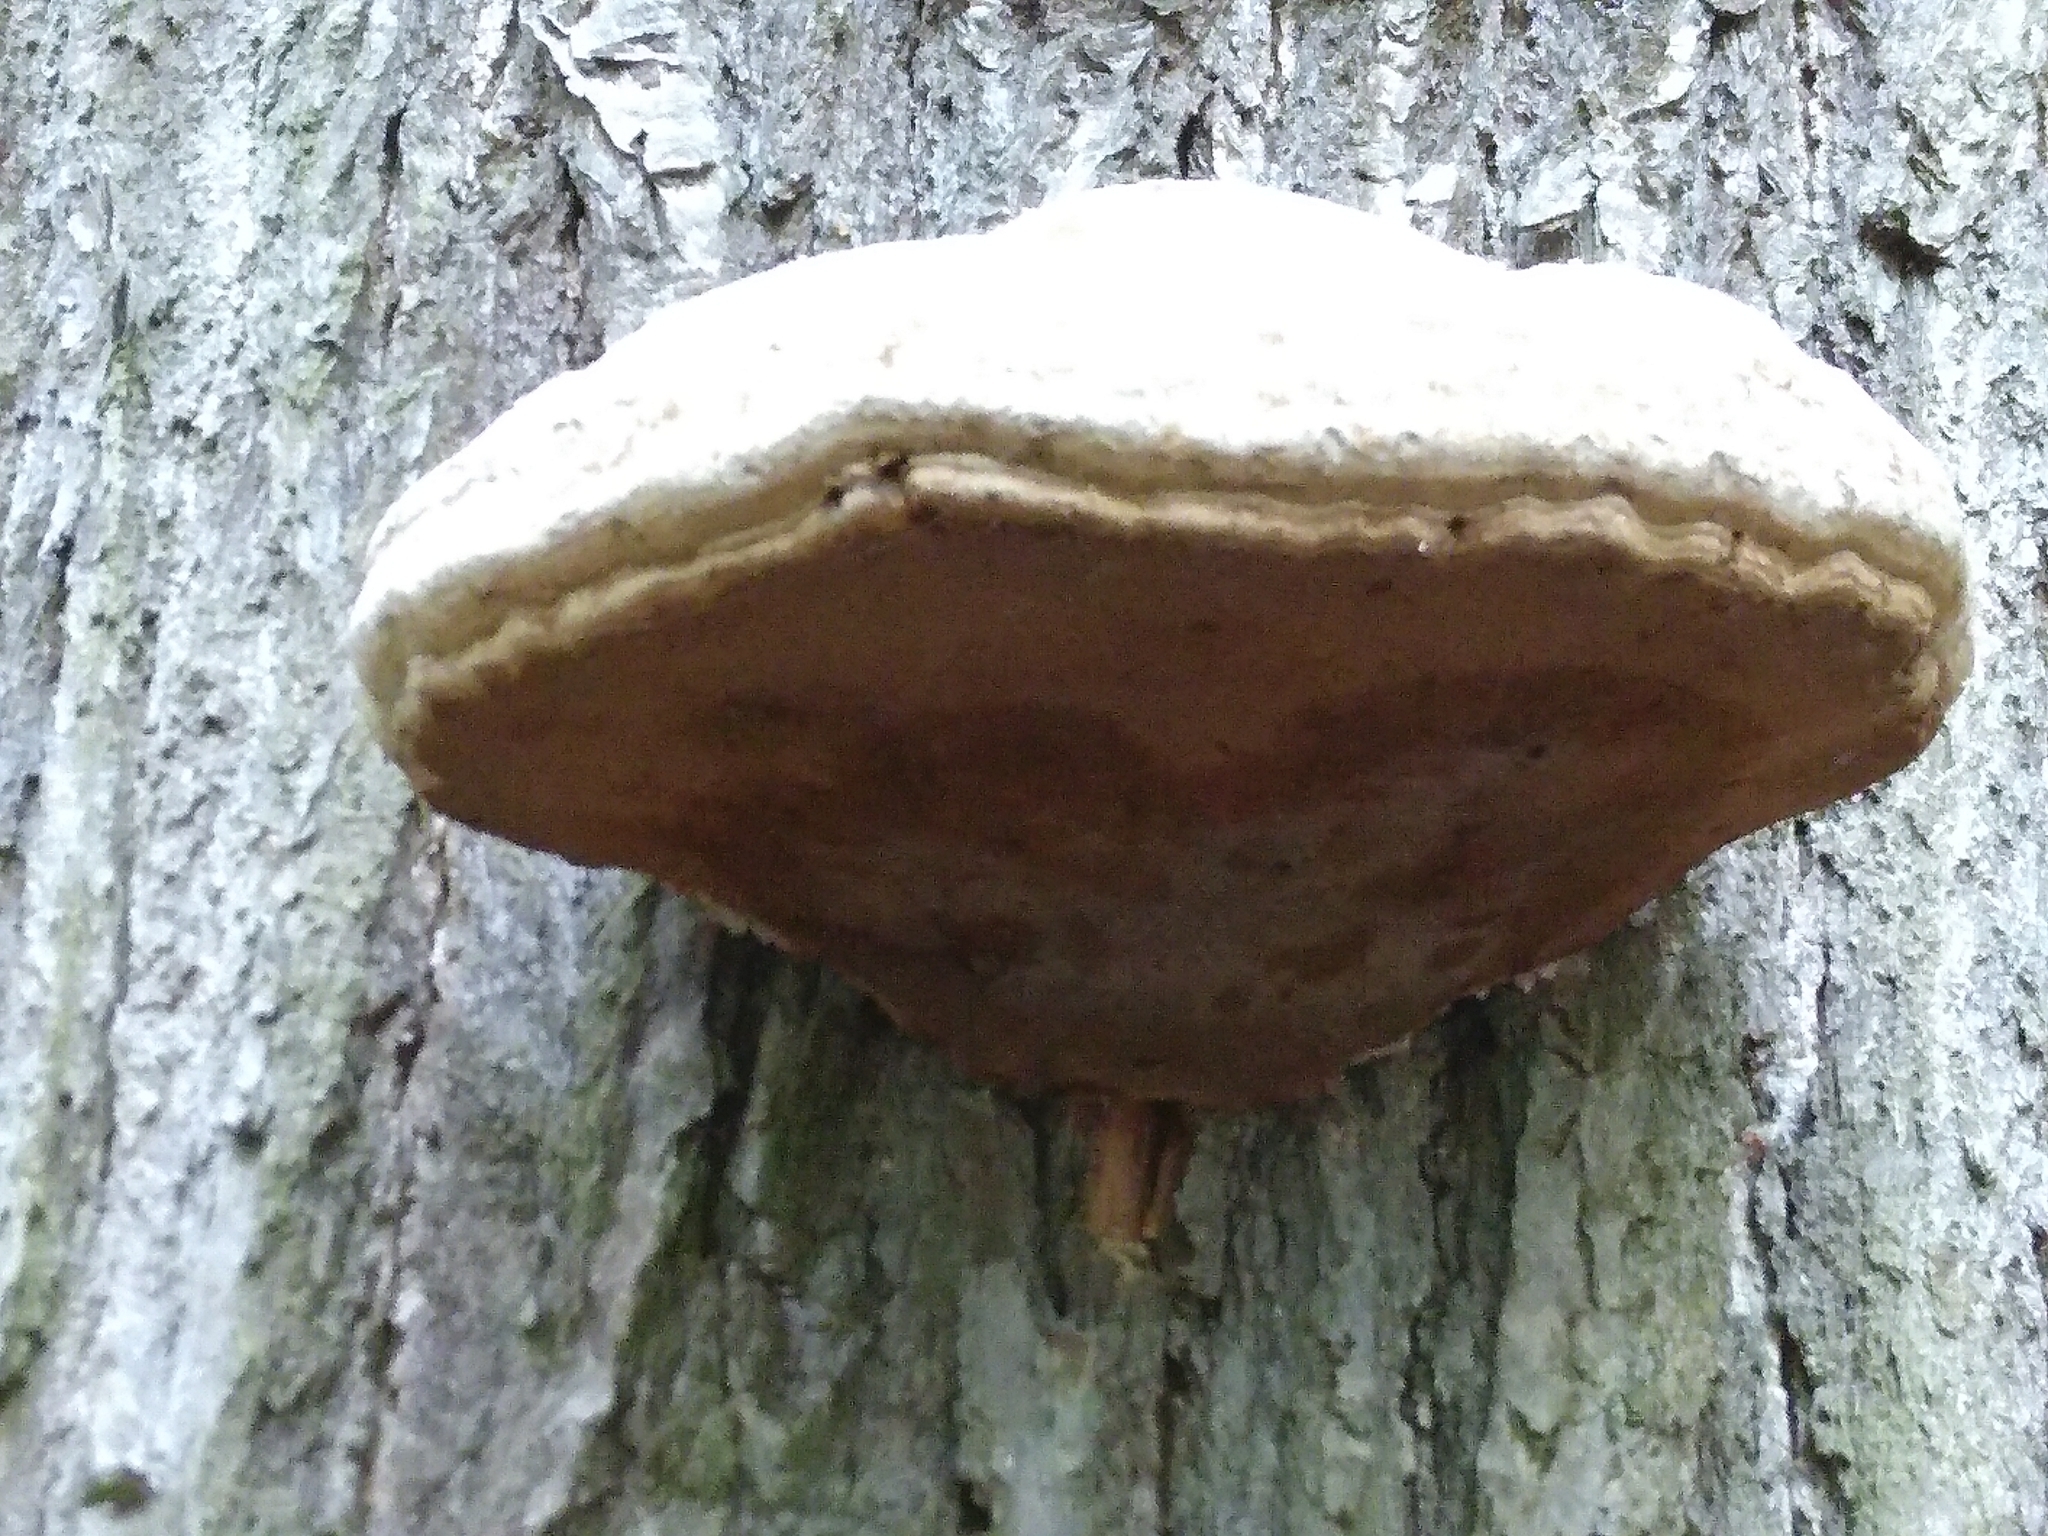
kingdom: Fungi
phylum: Basidiomycota
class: Agaricomycetes
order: Polyporales
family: Polyporaceae
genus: Fomes
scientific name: Fomes fomentarius
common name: Hoof fungus
